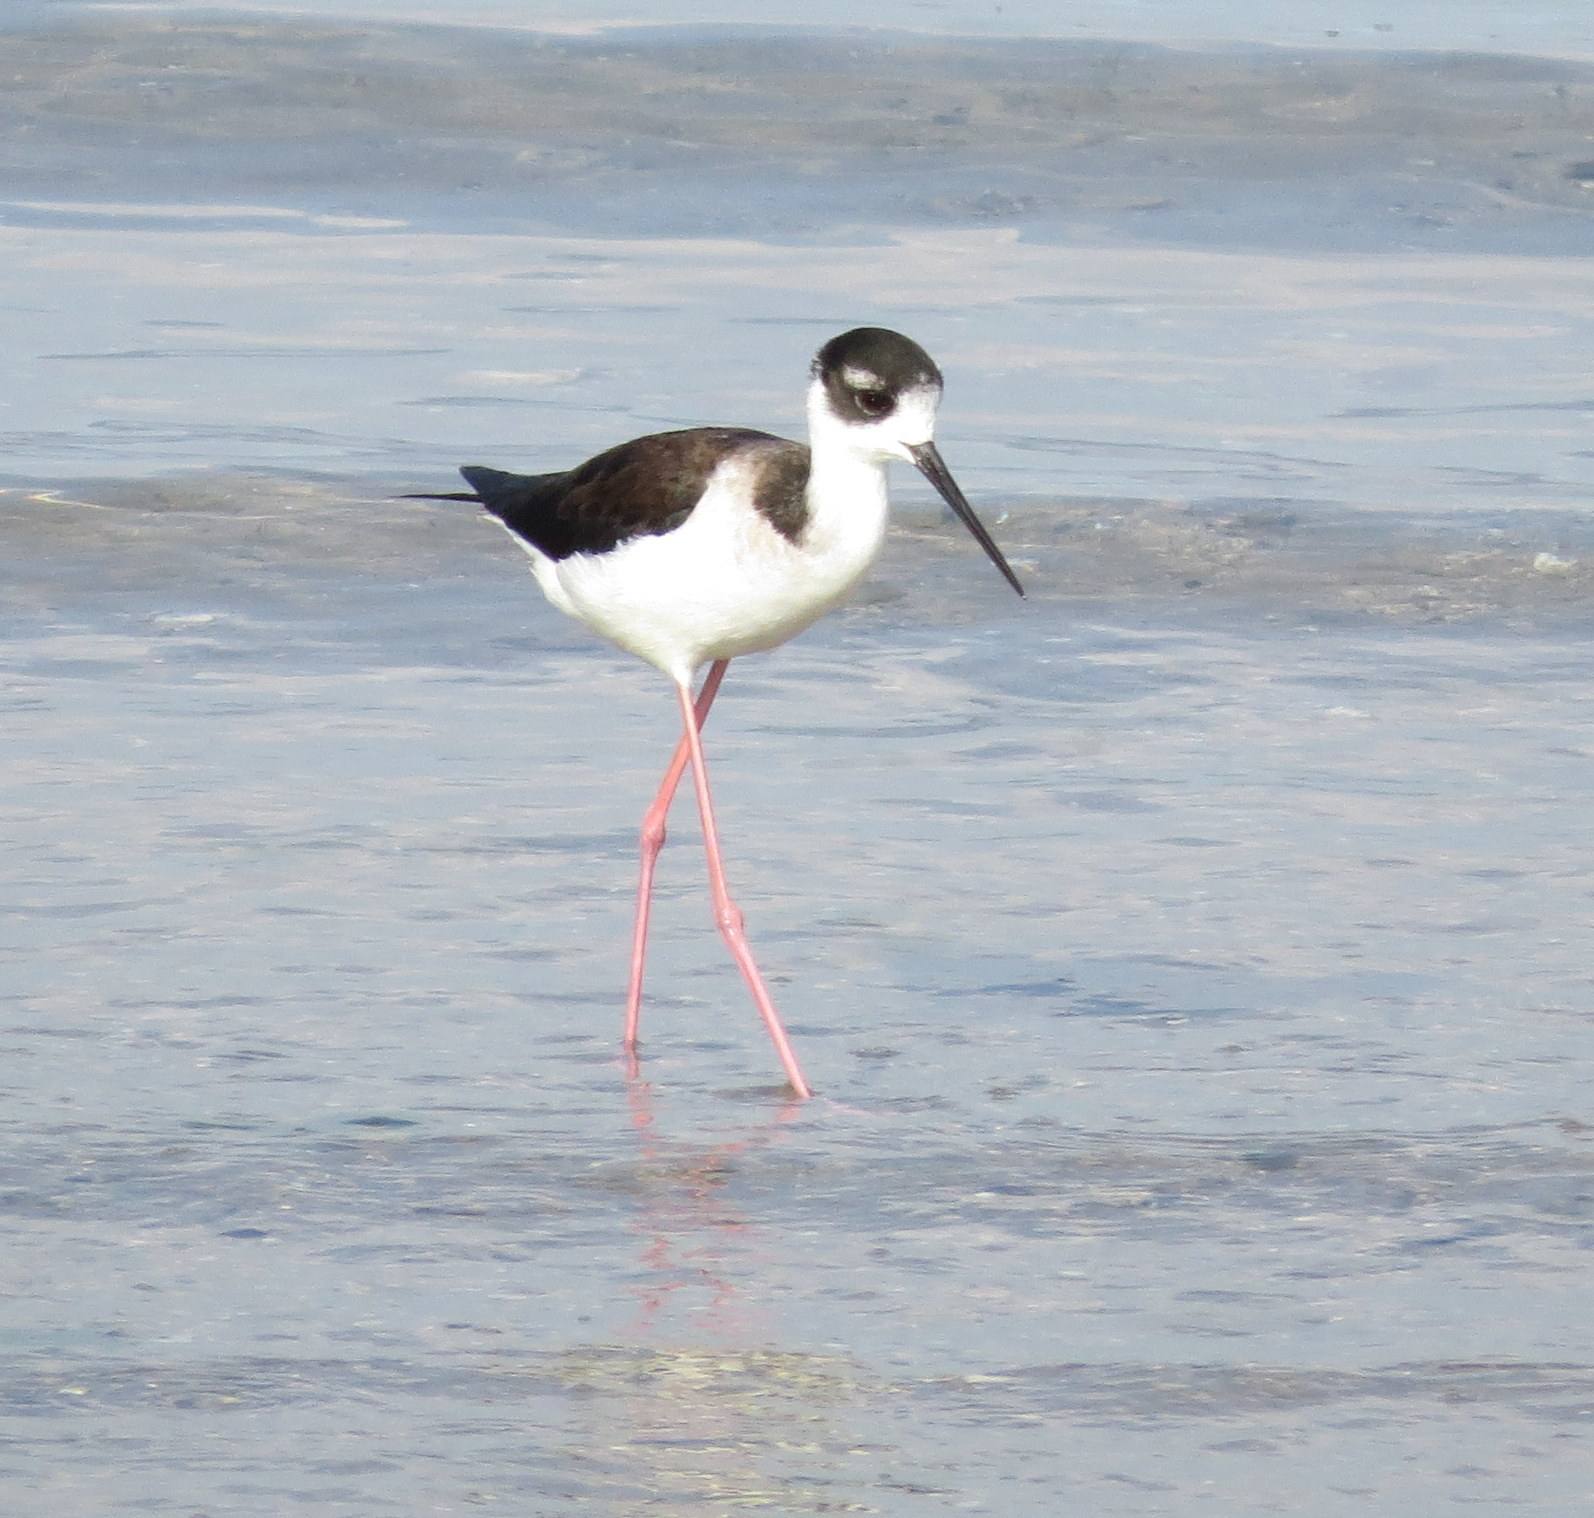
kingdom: Animalia
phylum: Chordata
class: Aves
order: Charadriiformes
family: Recurvirostridae
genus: Himantopus
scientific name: Himantopus mexicanus
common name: Black-necked stilt
